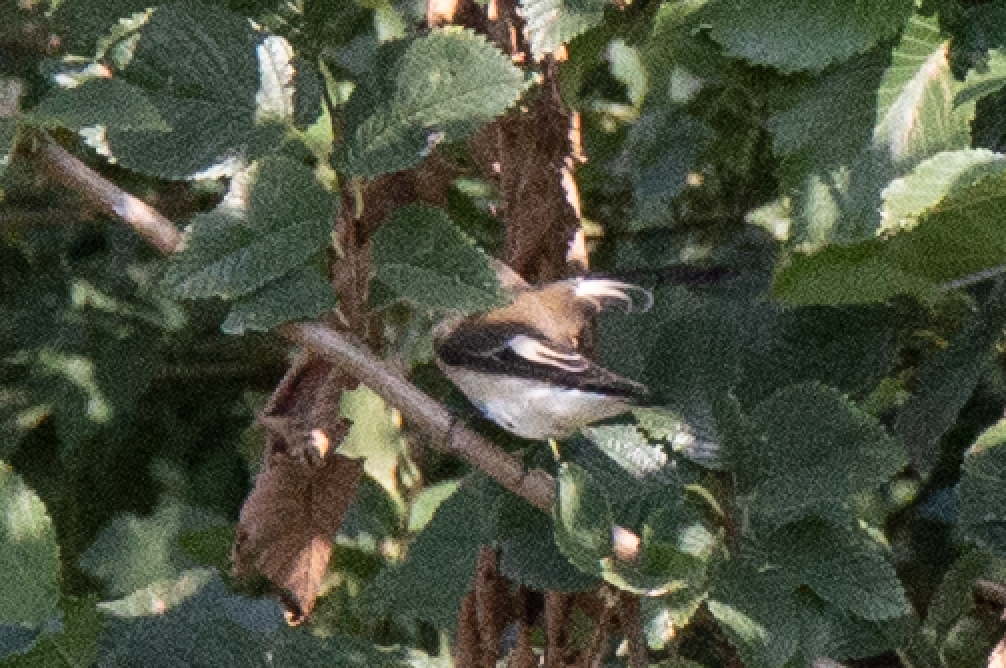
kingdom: Animalia
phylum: Chordata
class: Aves
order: Passeriformes
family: Muscicapidae
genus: Ficedula
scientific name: Ficedula hypoleuca
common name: European pied flycatcher
